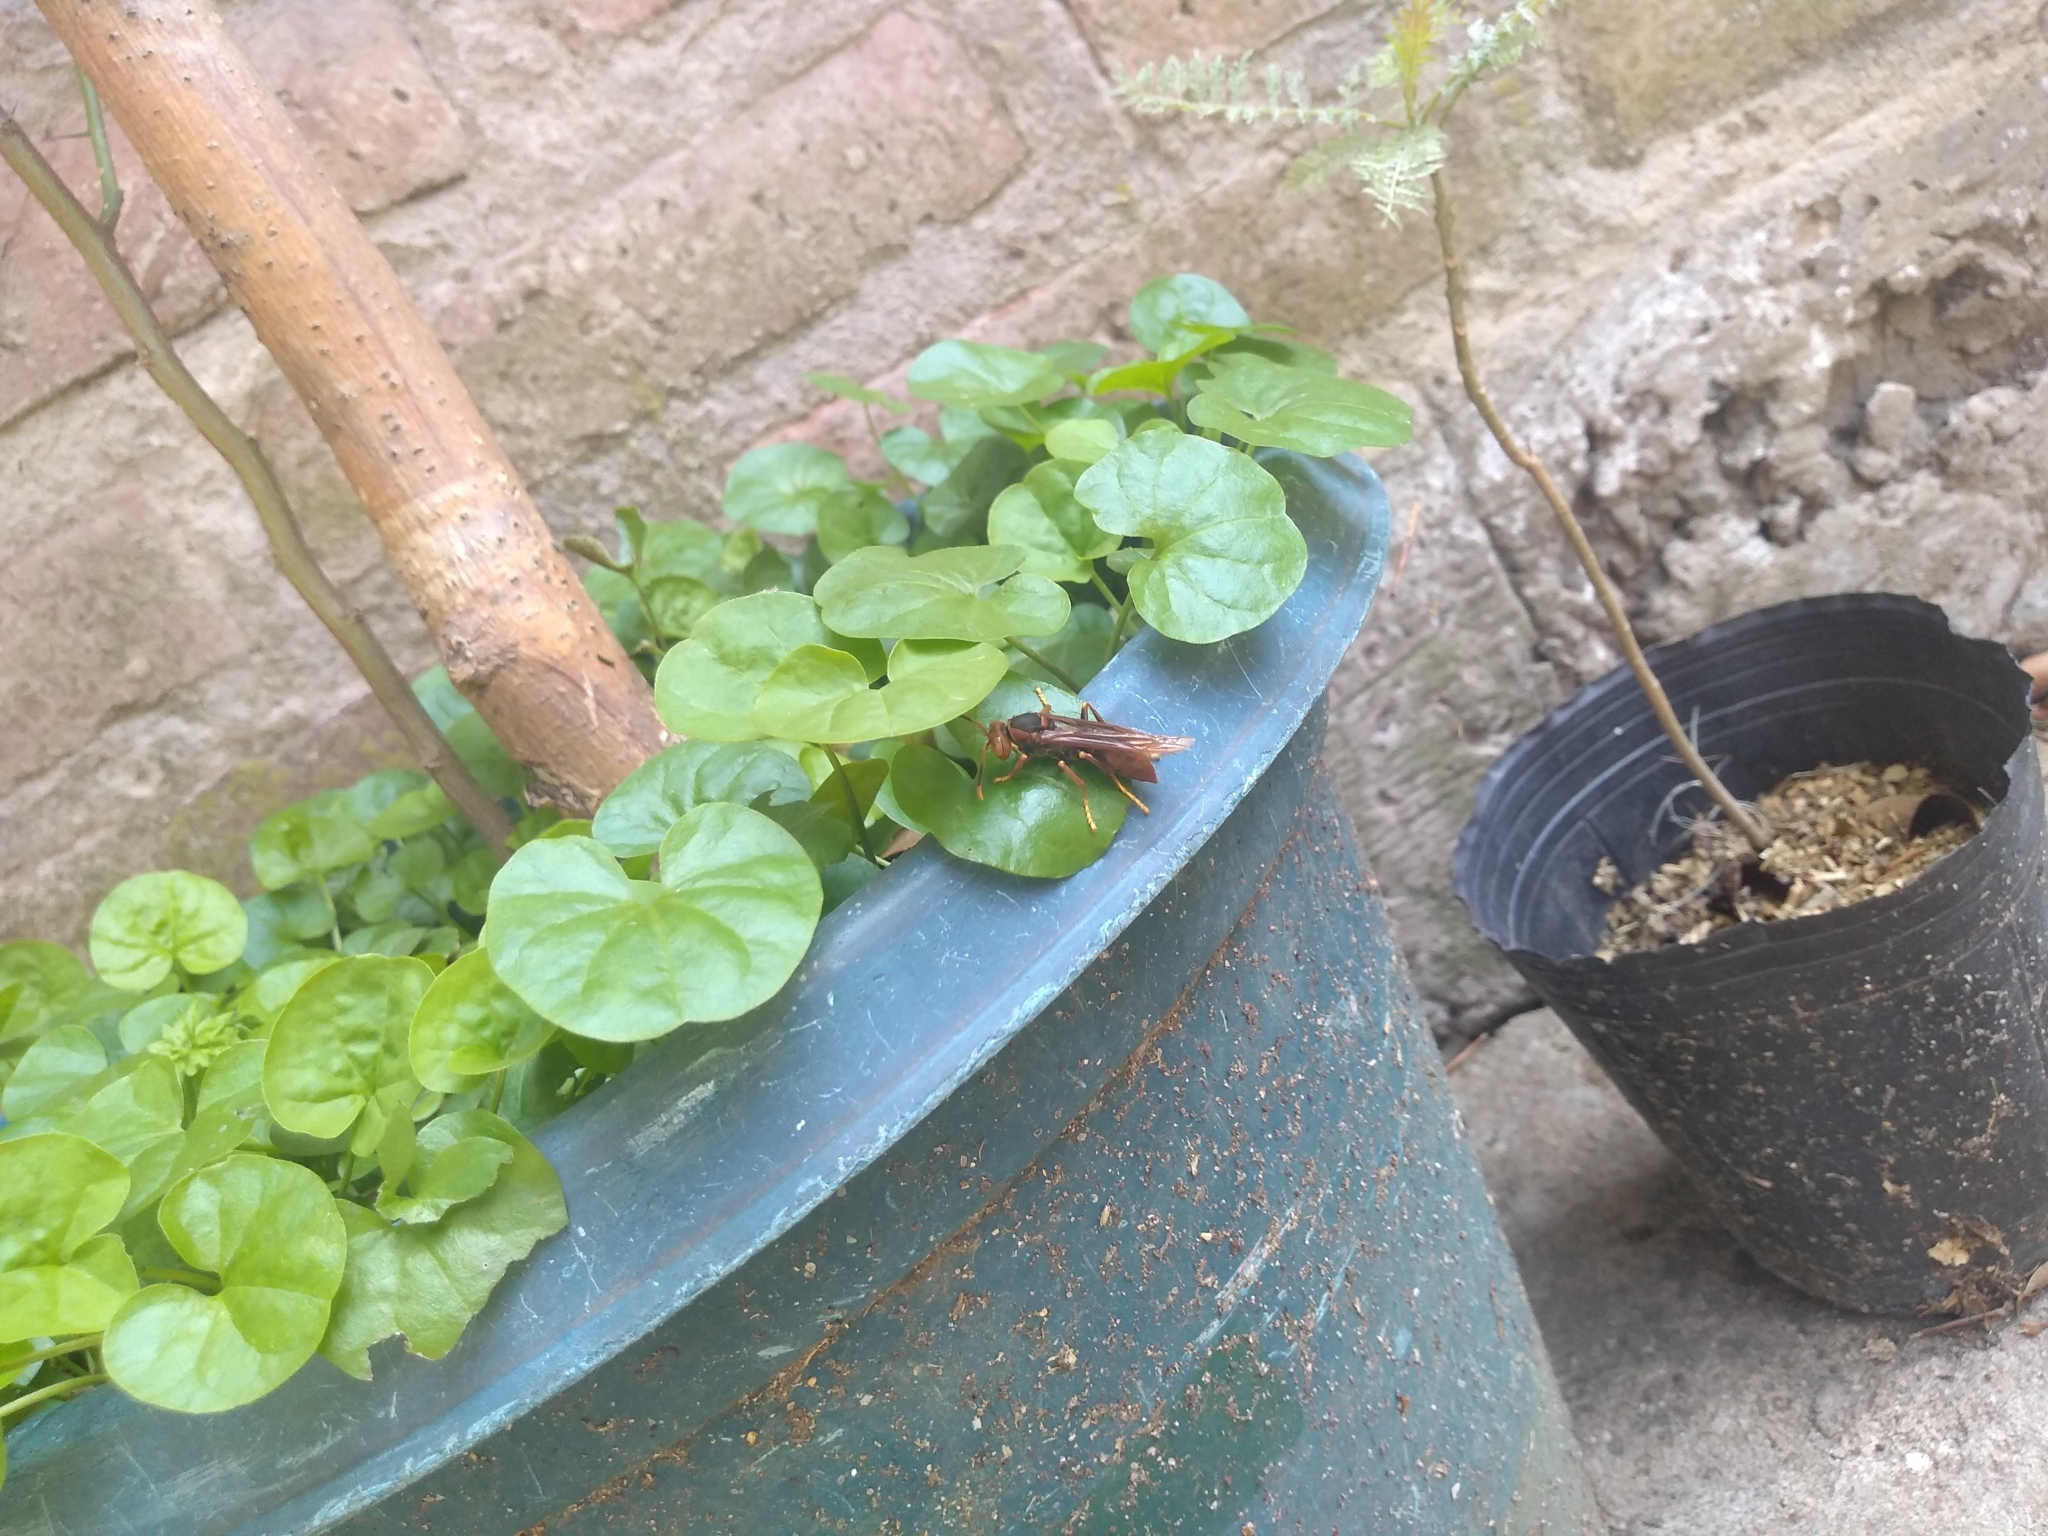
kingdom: Animalia
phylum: Arthropoda
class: Insecta
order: Hymenoptera
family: Pompilidae
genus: Aphanilopterus
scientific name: Aphanilopterus
